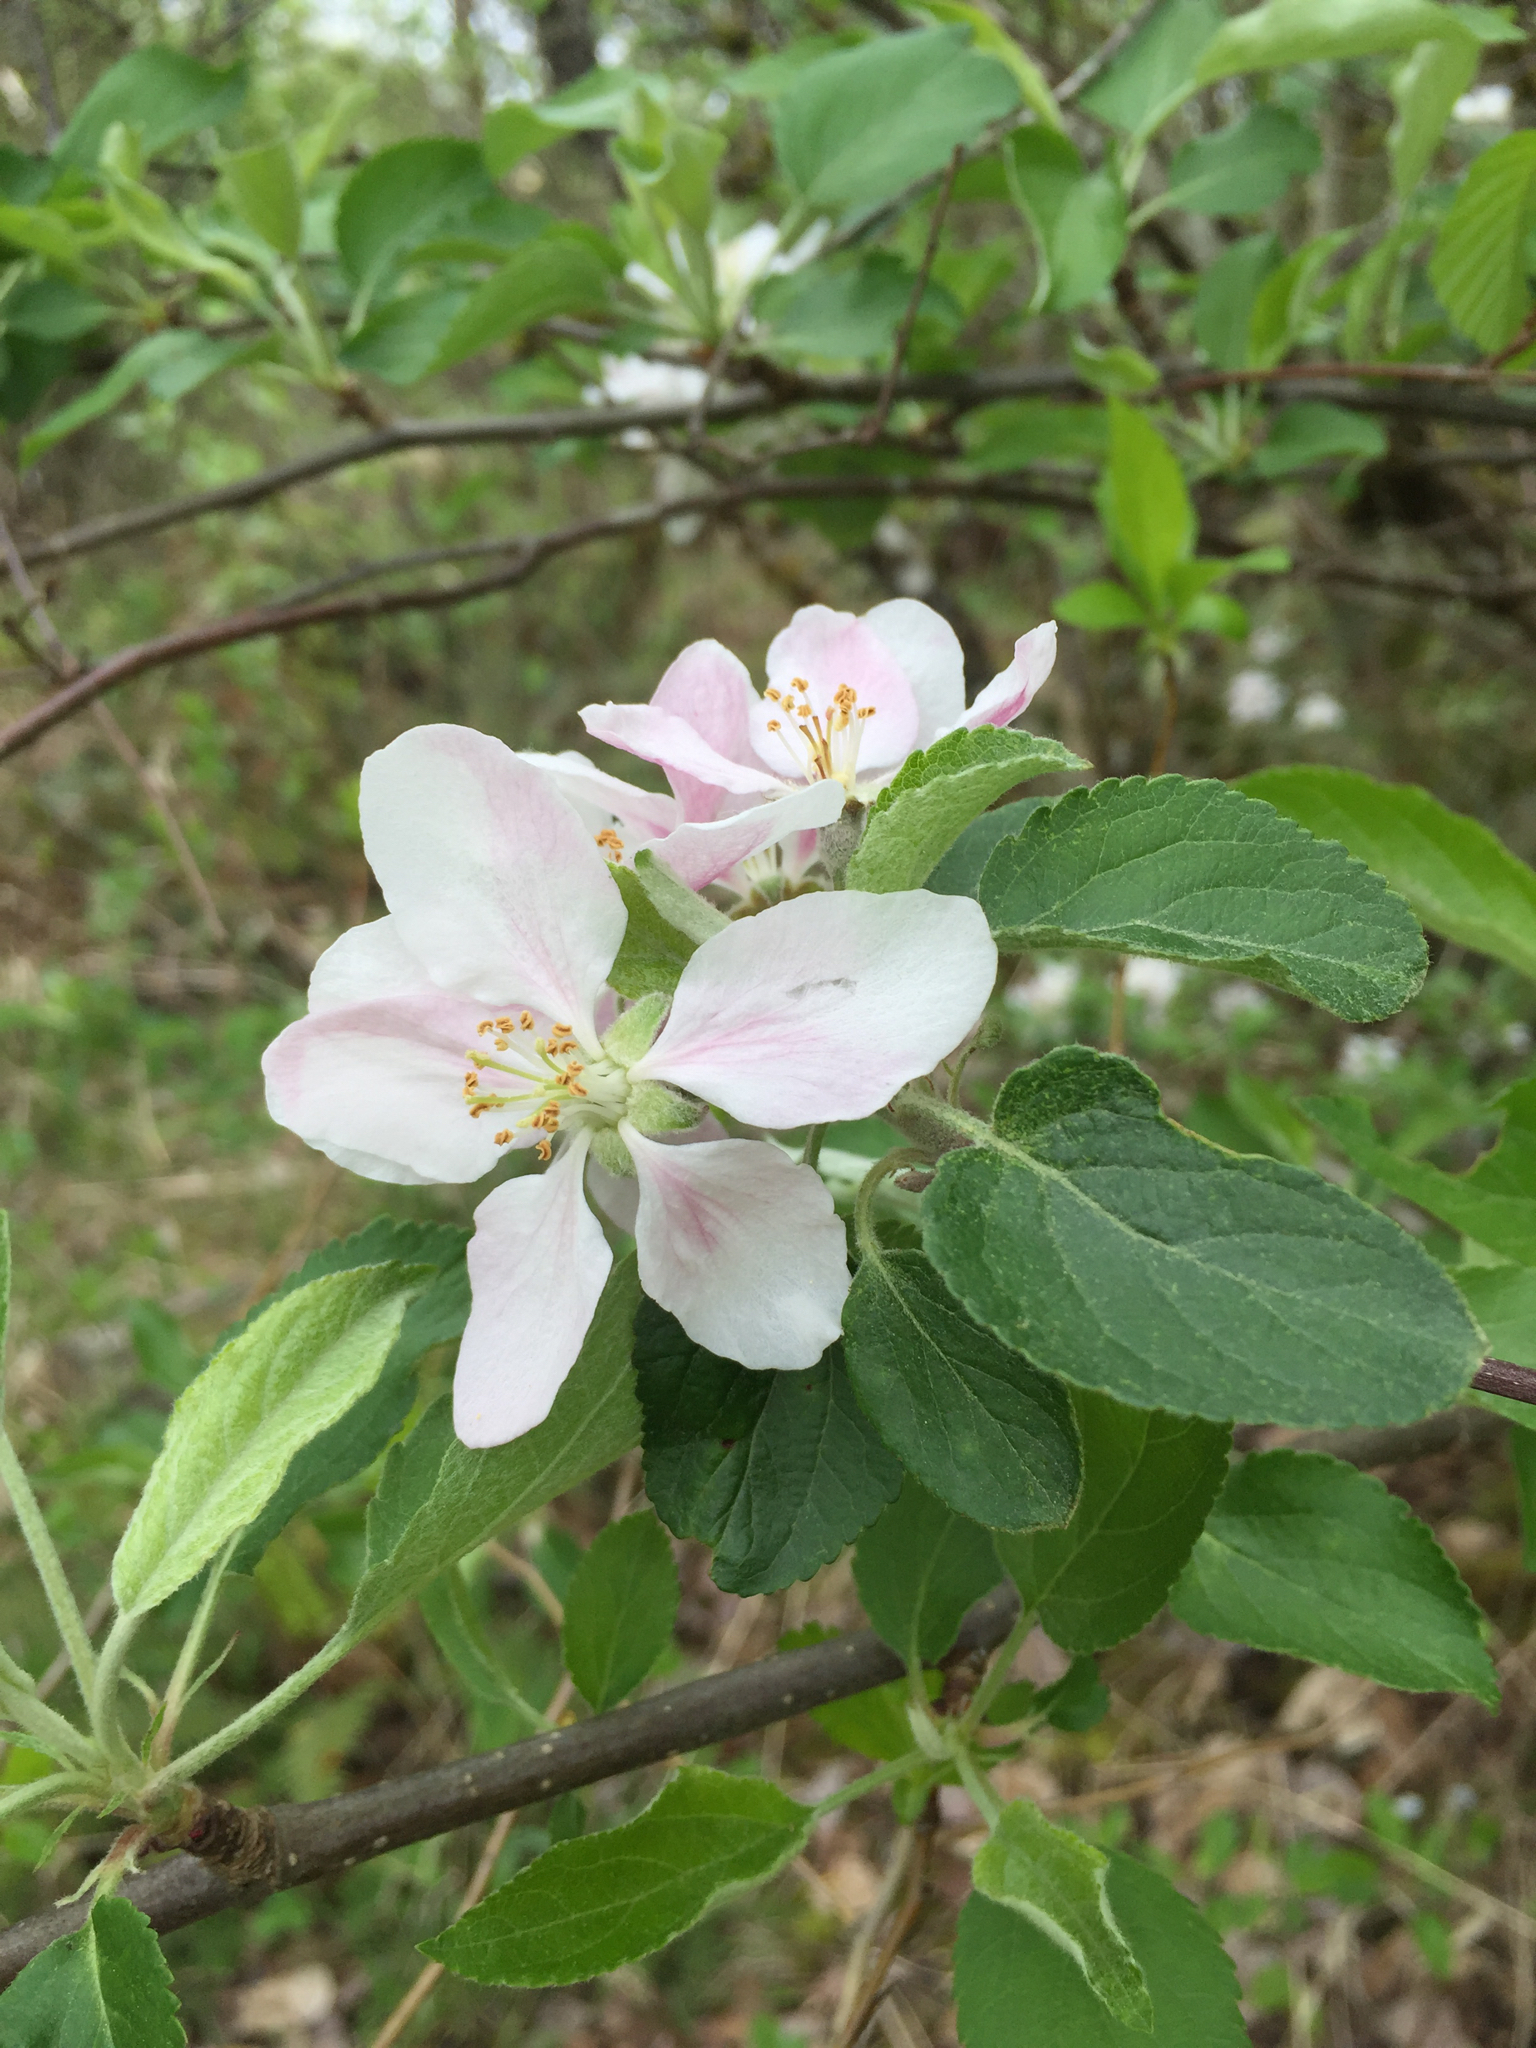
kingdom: Plantae
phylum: Tracheophyta
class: Magnoliopsida
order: Rosales
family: Rosaceae
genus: Malus
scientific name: Malus domestica
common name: Apple
